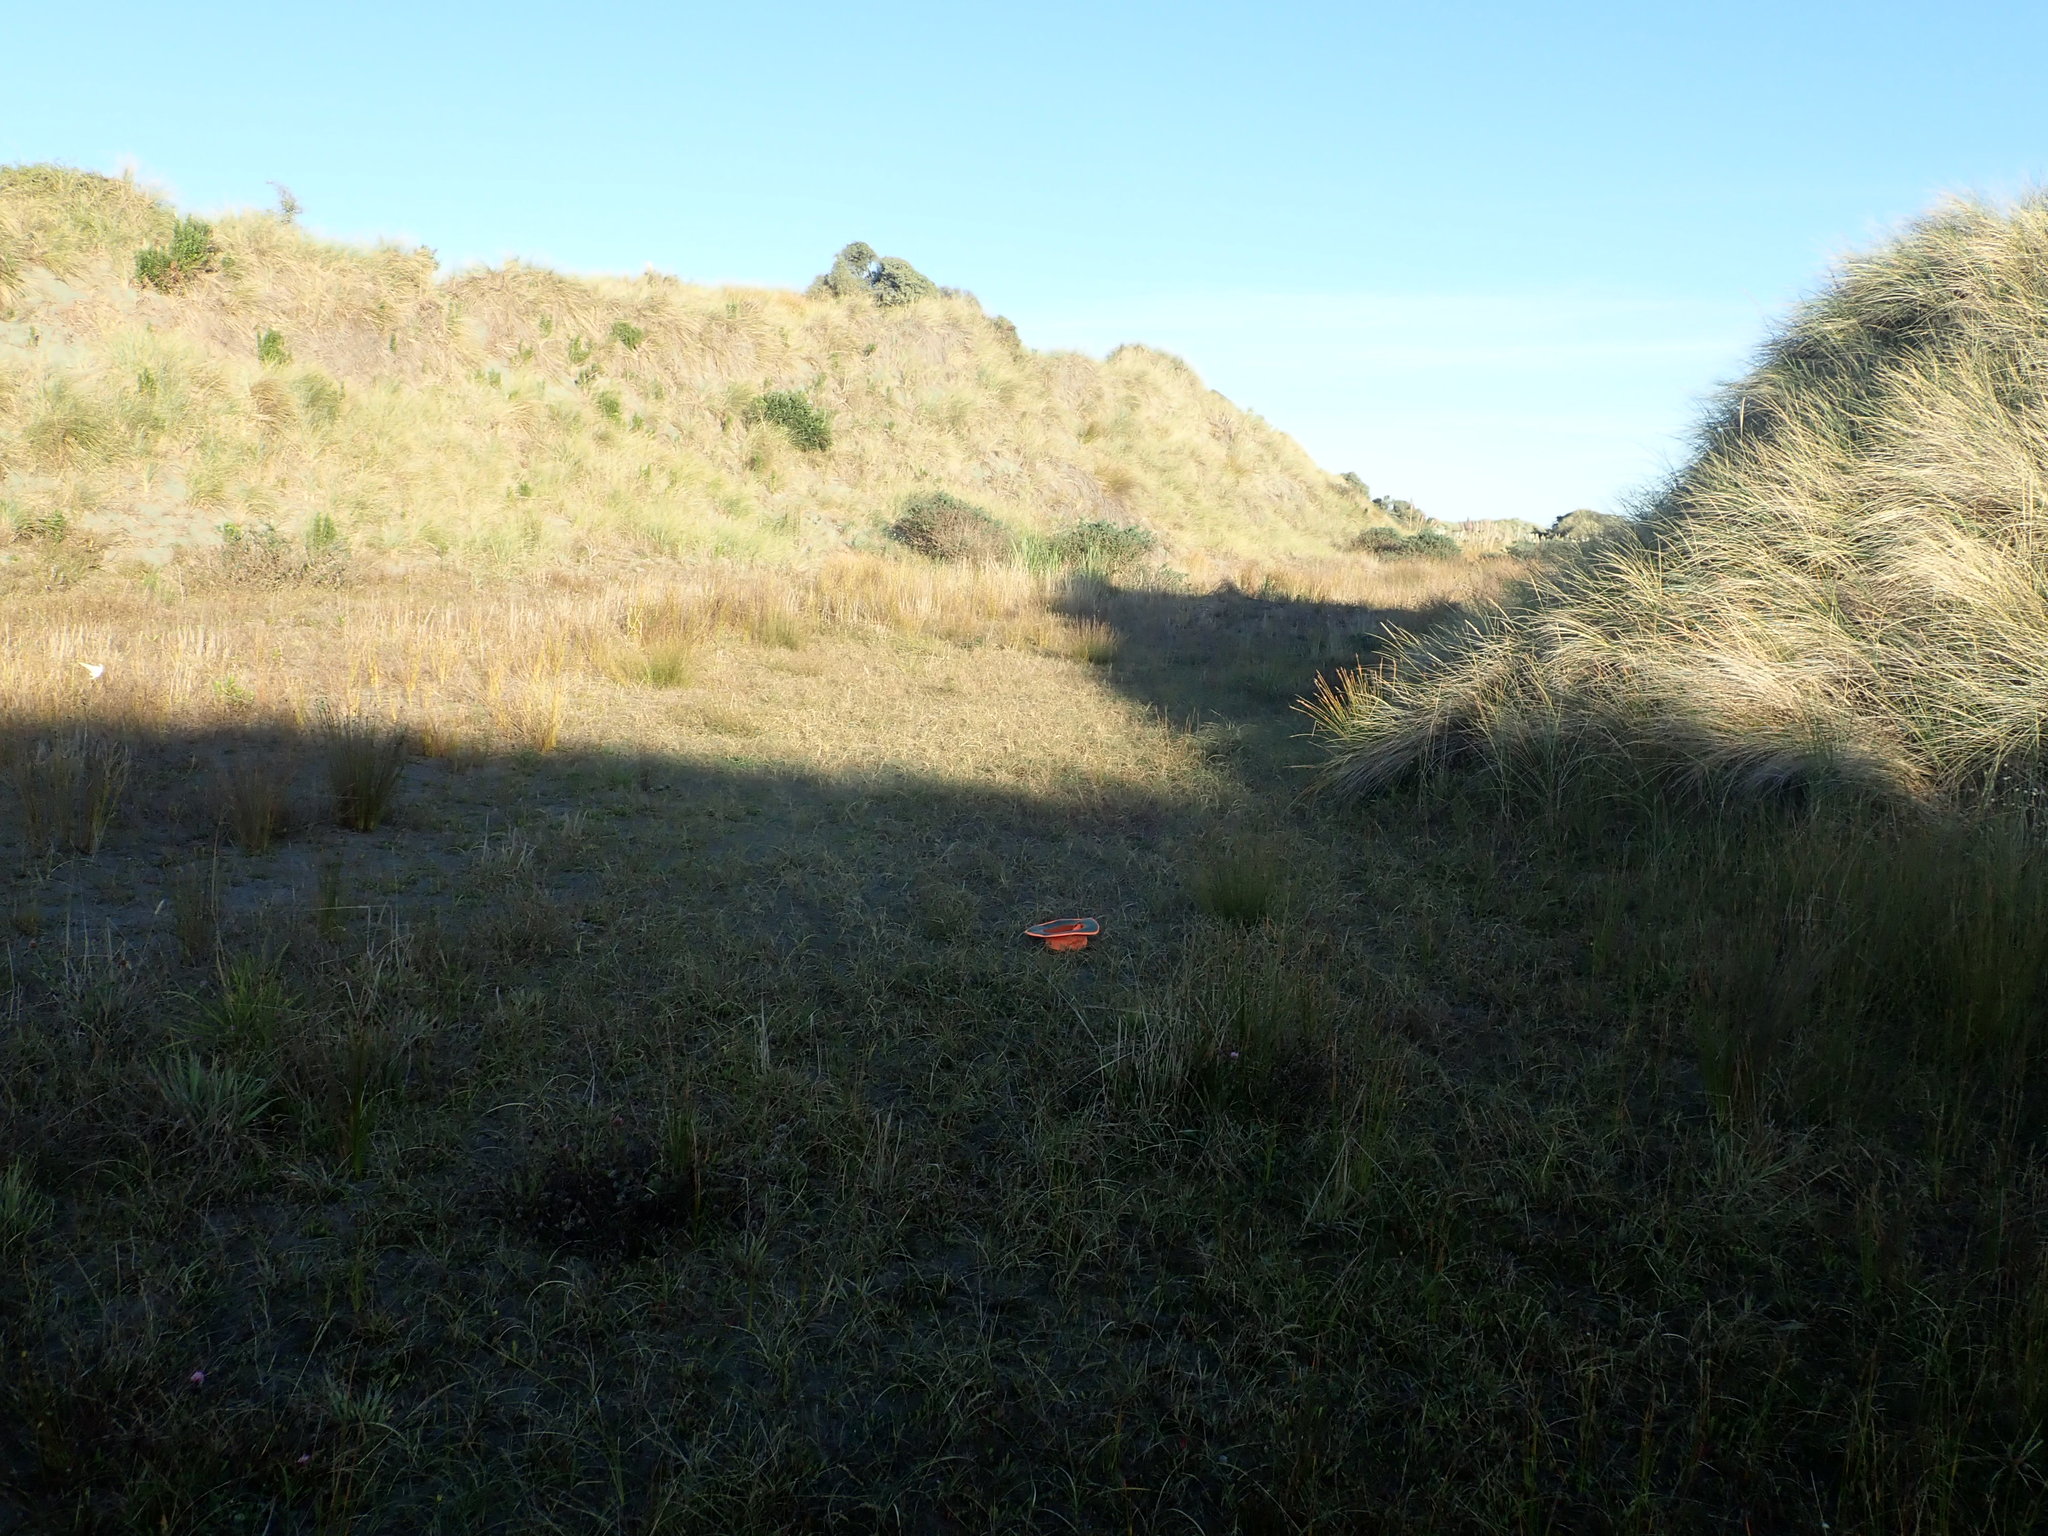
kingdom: Plantae
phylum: Tracheophyta
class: Liliopsida
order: Poales
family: Cyperaceae
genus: Isolepis
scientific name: Isolepis cernua
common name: Slender club-rush
